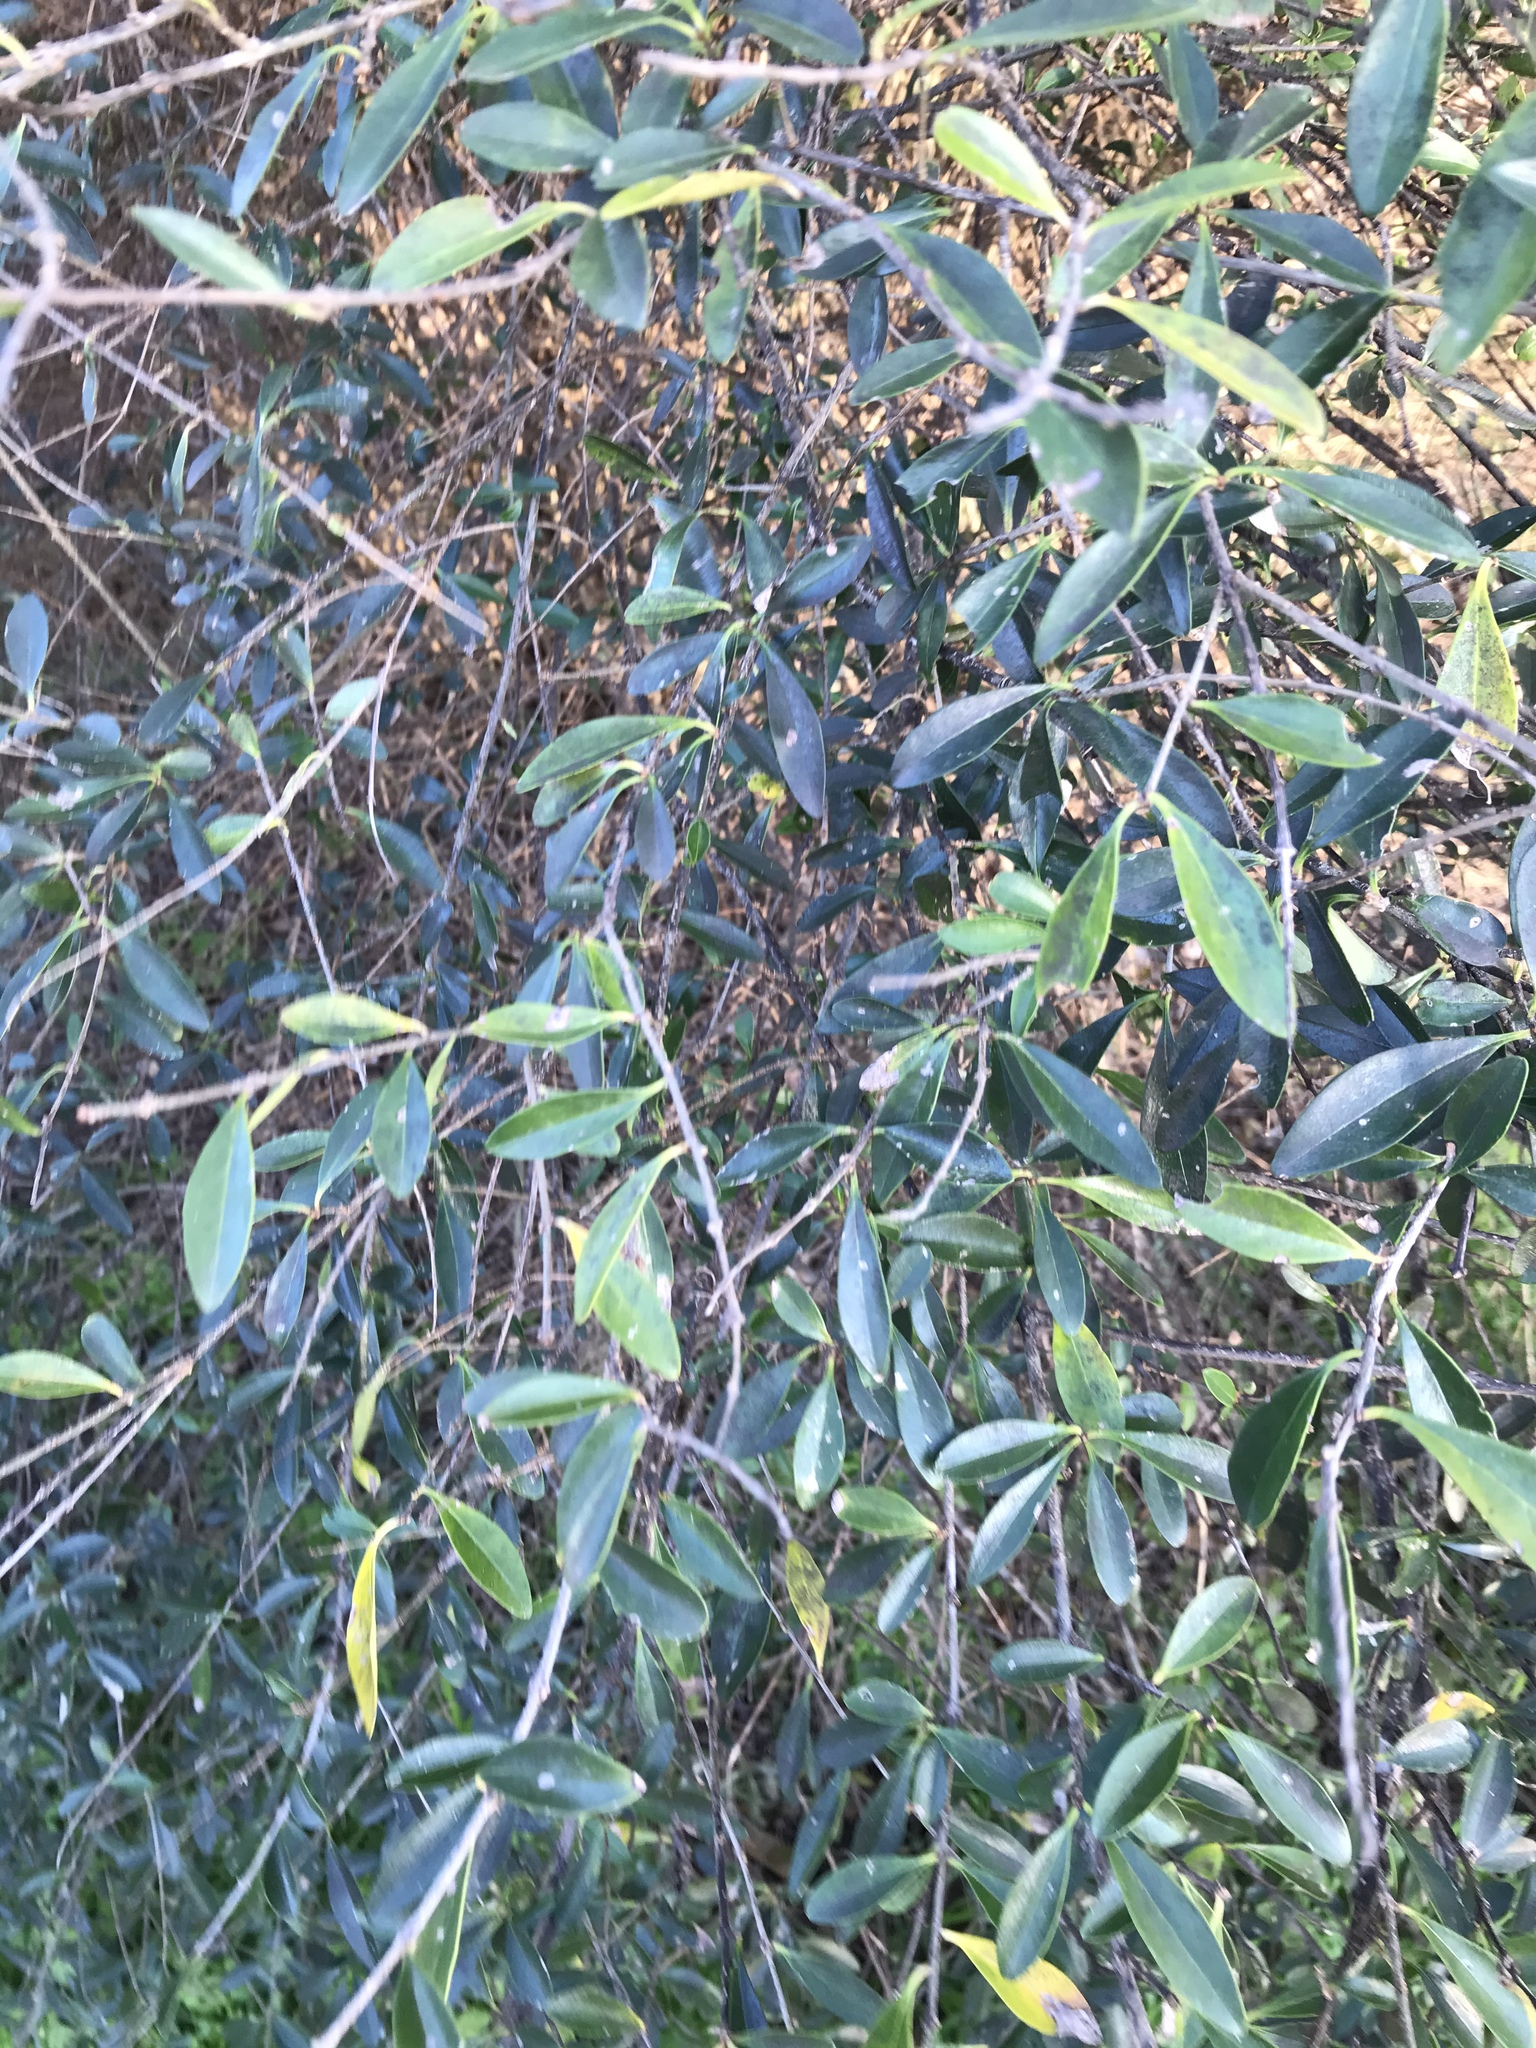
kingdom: Plantae
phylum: Tracheophyta
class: Magnoliopsida
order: Lamiales
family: Oleaceae
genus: Ligustrum
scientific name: Ligustrum quihoui
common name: Waxyleaf privet
